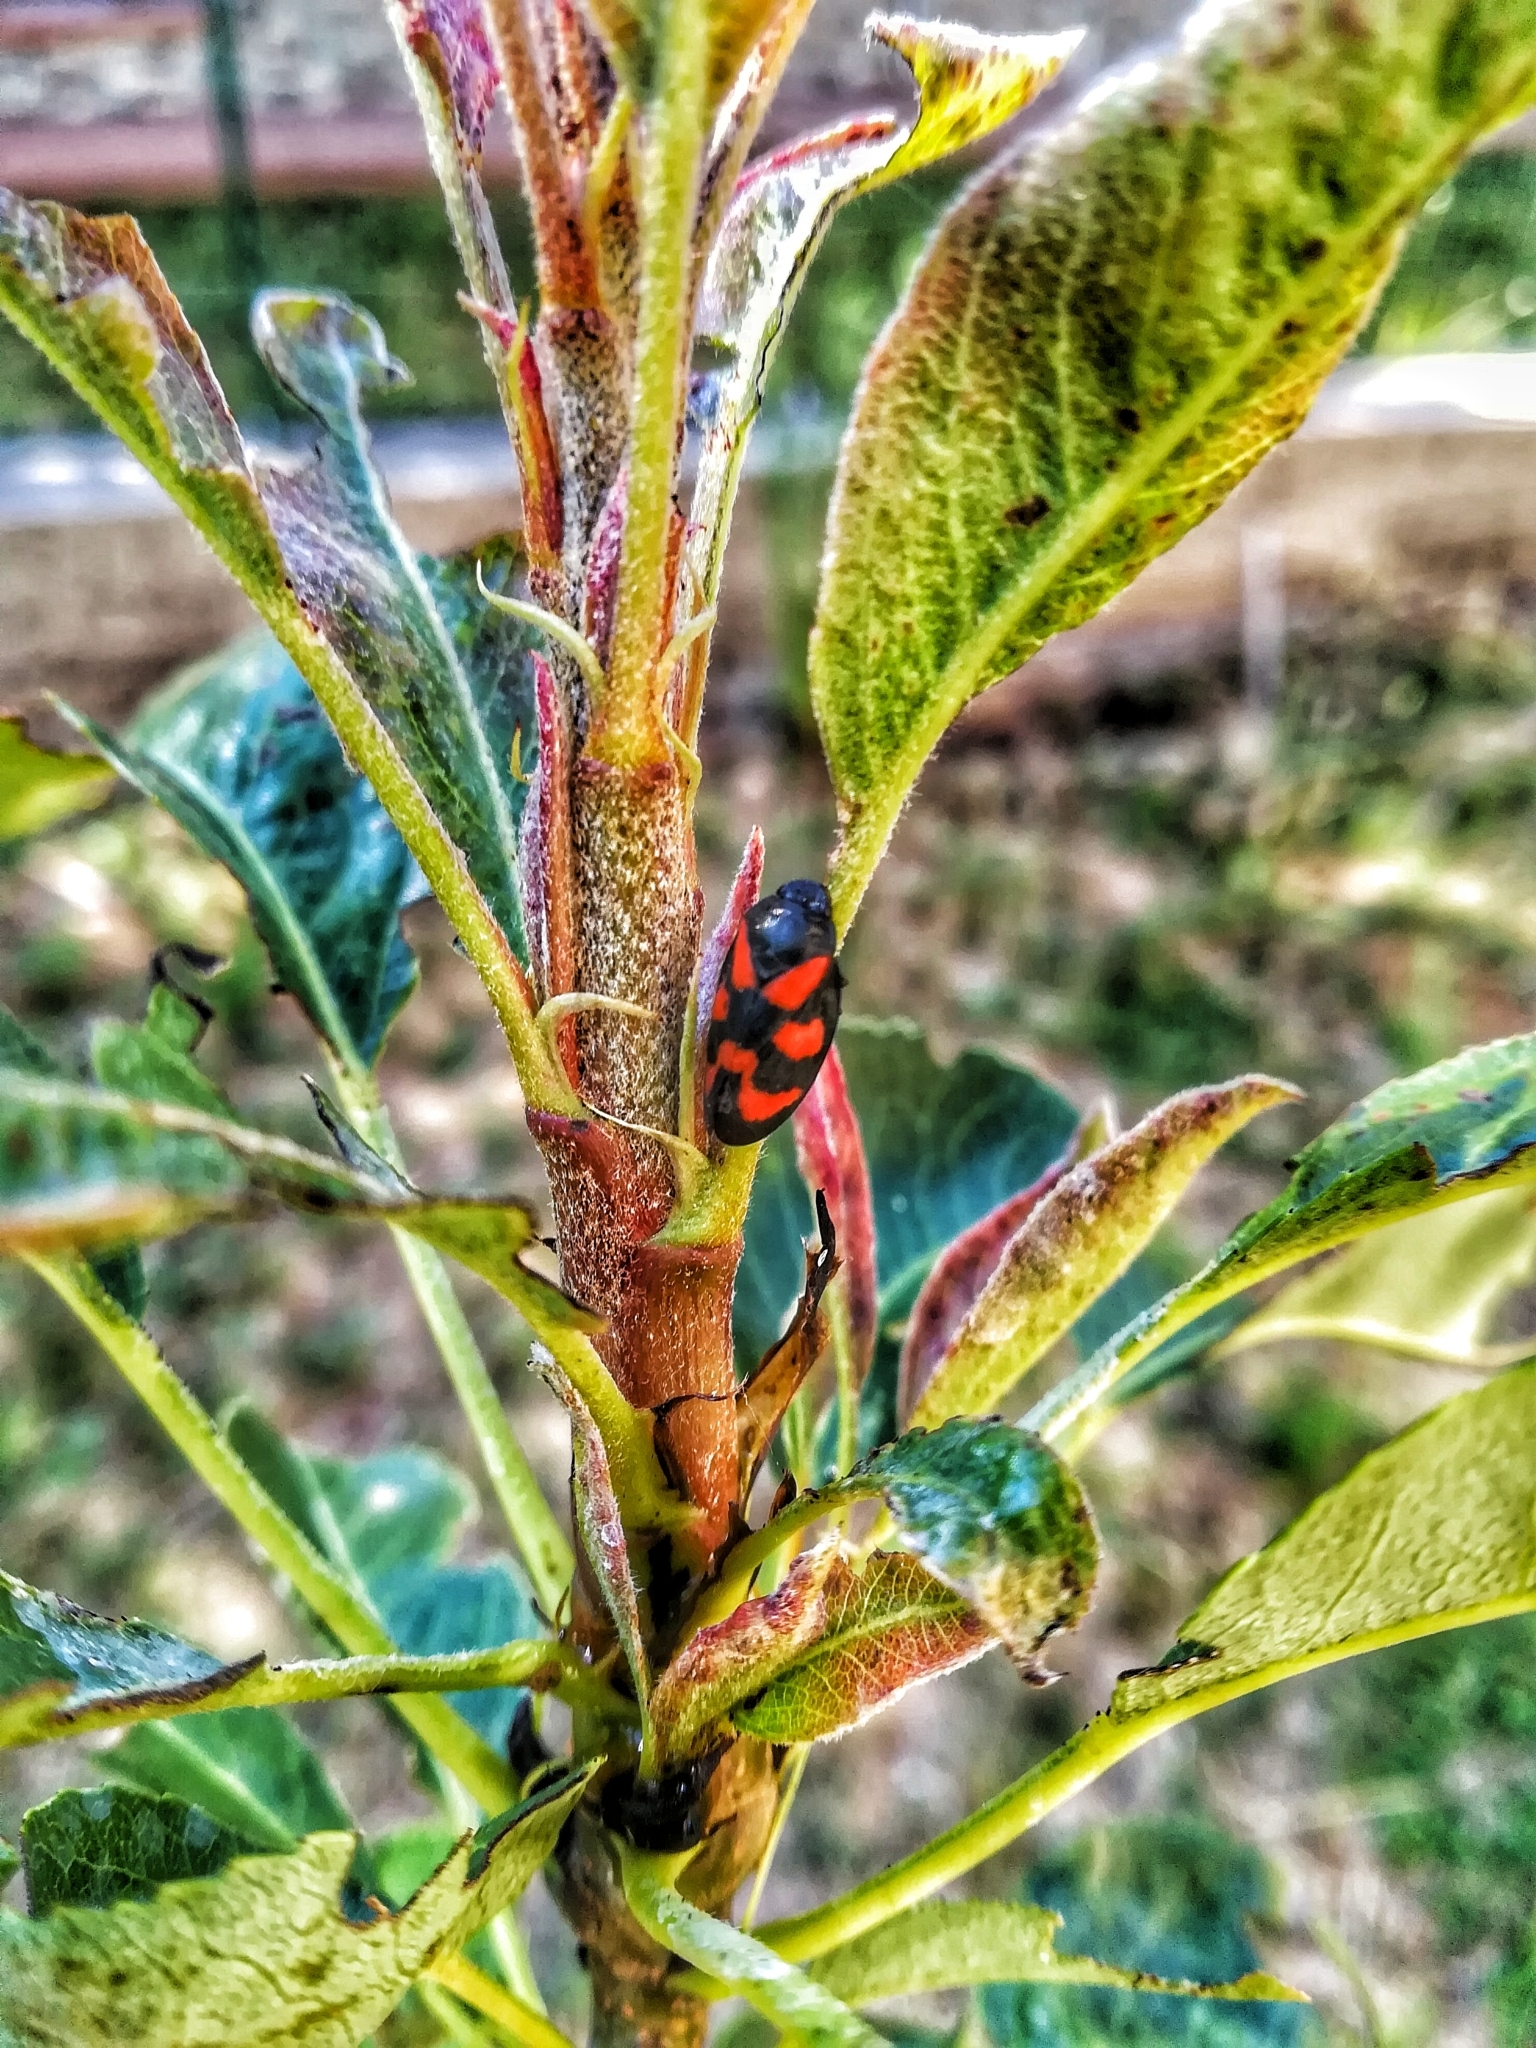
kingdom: Animalia
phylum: Arthropoda
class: Insecta
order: Hemiptera
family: Cercopidae
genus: Cercopis
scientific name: Cercopis vulnerata
